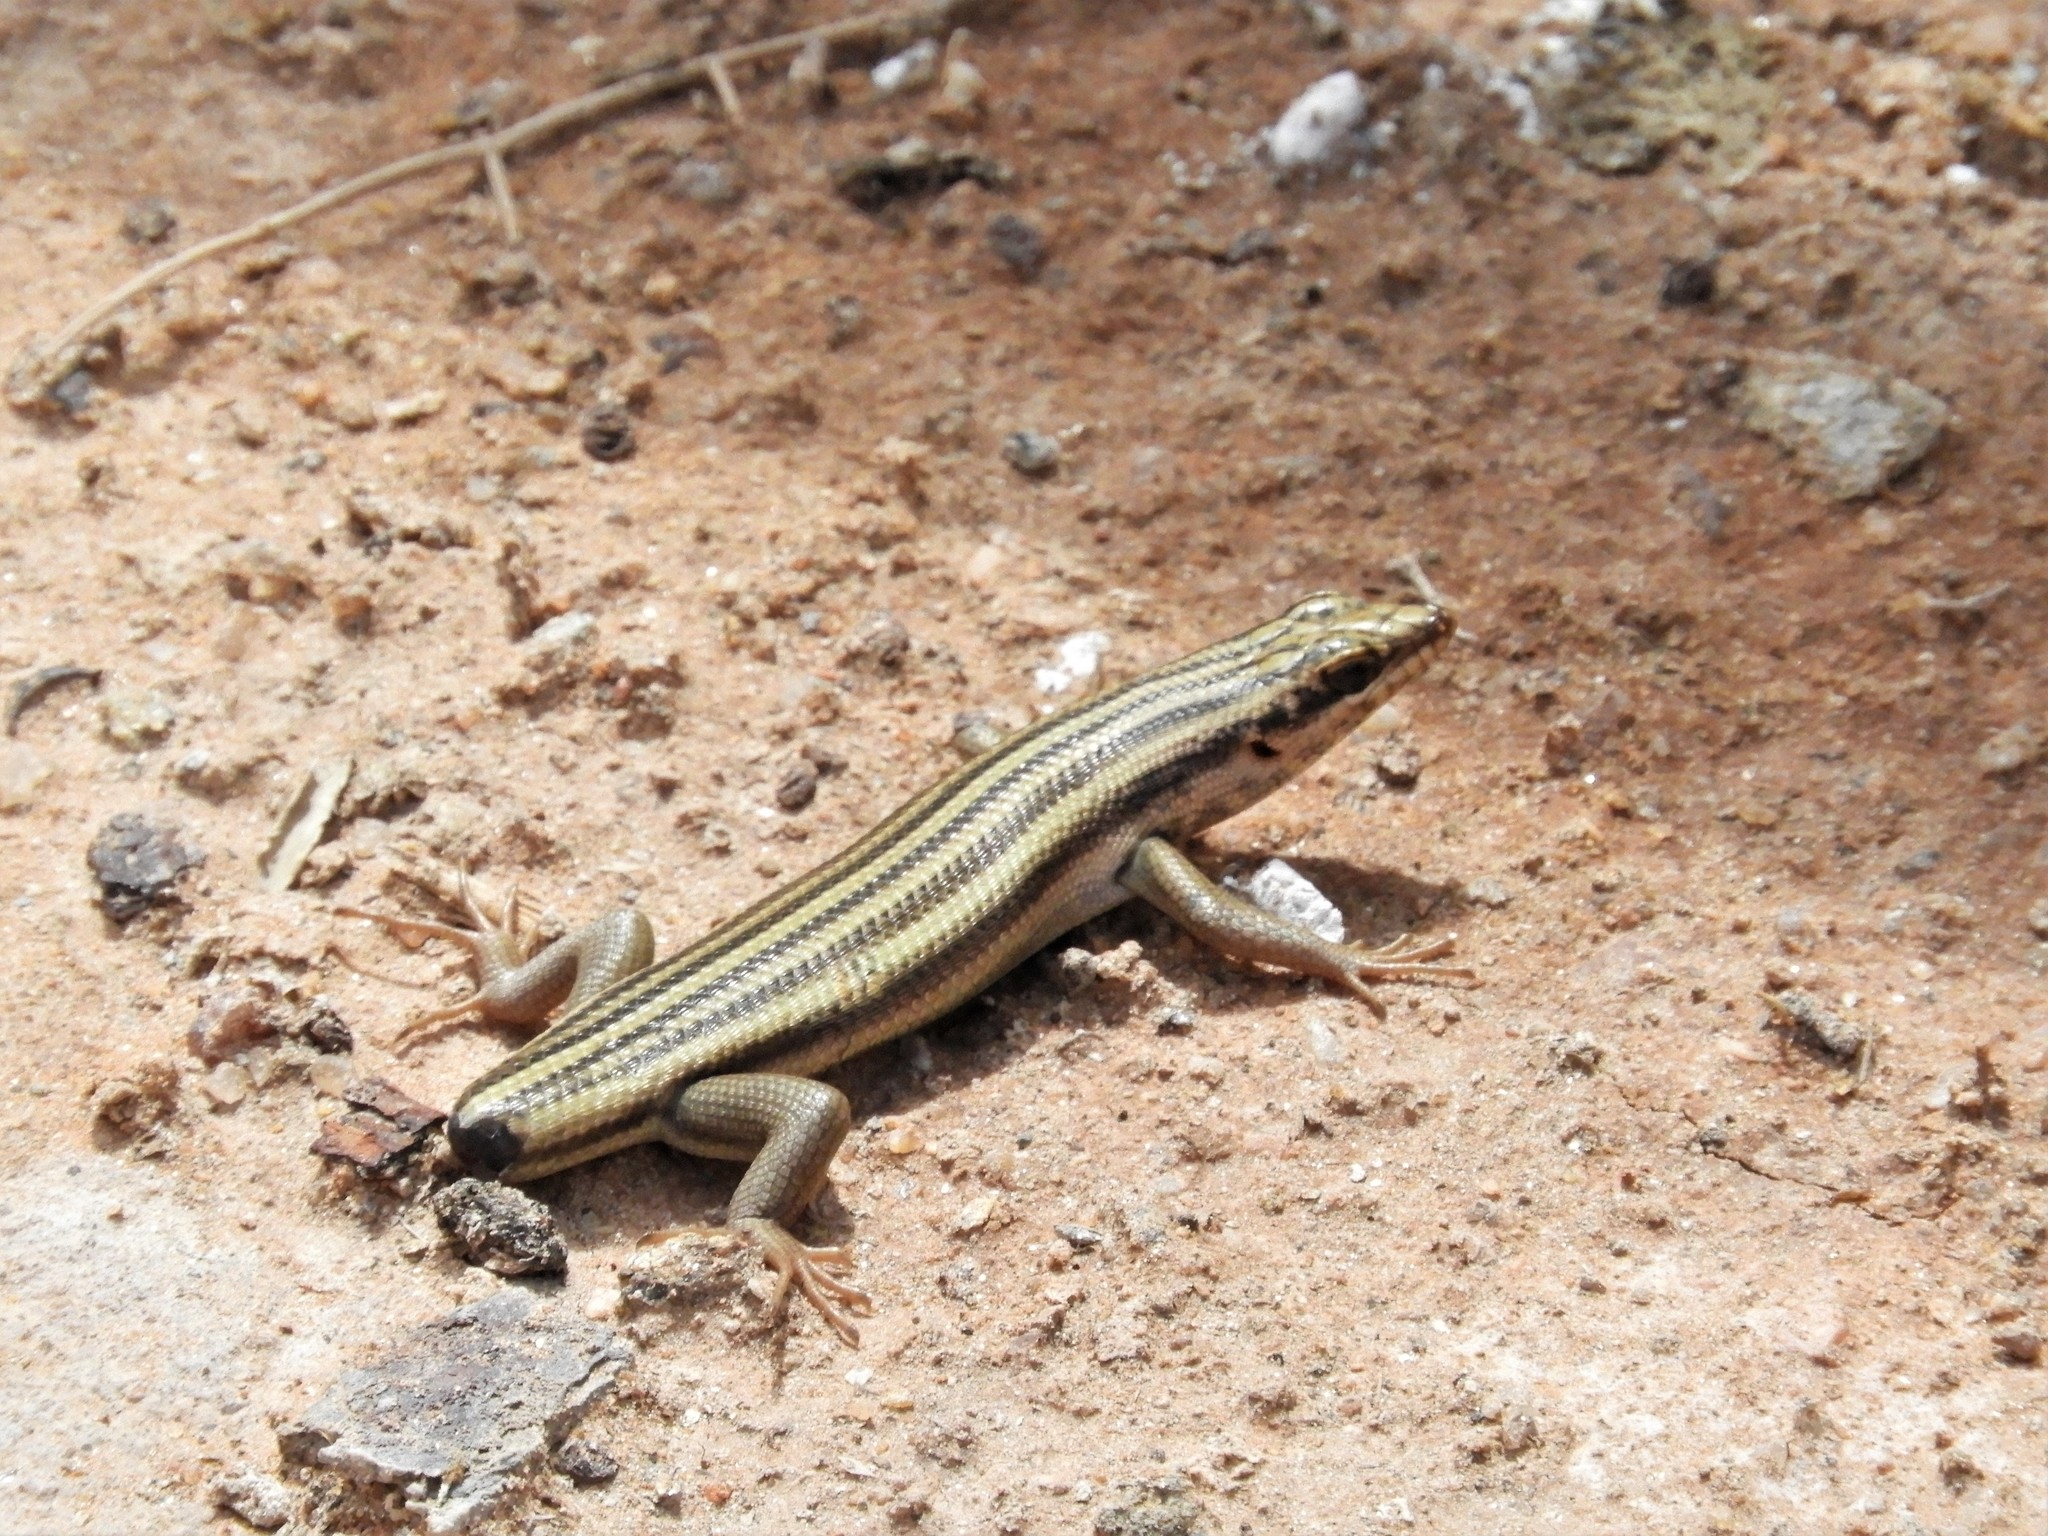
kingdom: Animalia
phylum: Chordata
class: Squamata
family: Scincidae
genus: Trachylepis
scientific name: Trachylepis sulcata
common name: Western rock skink
